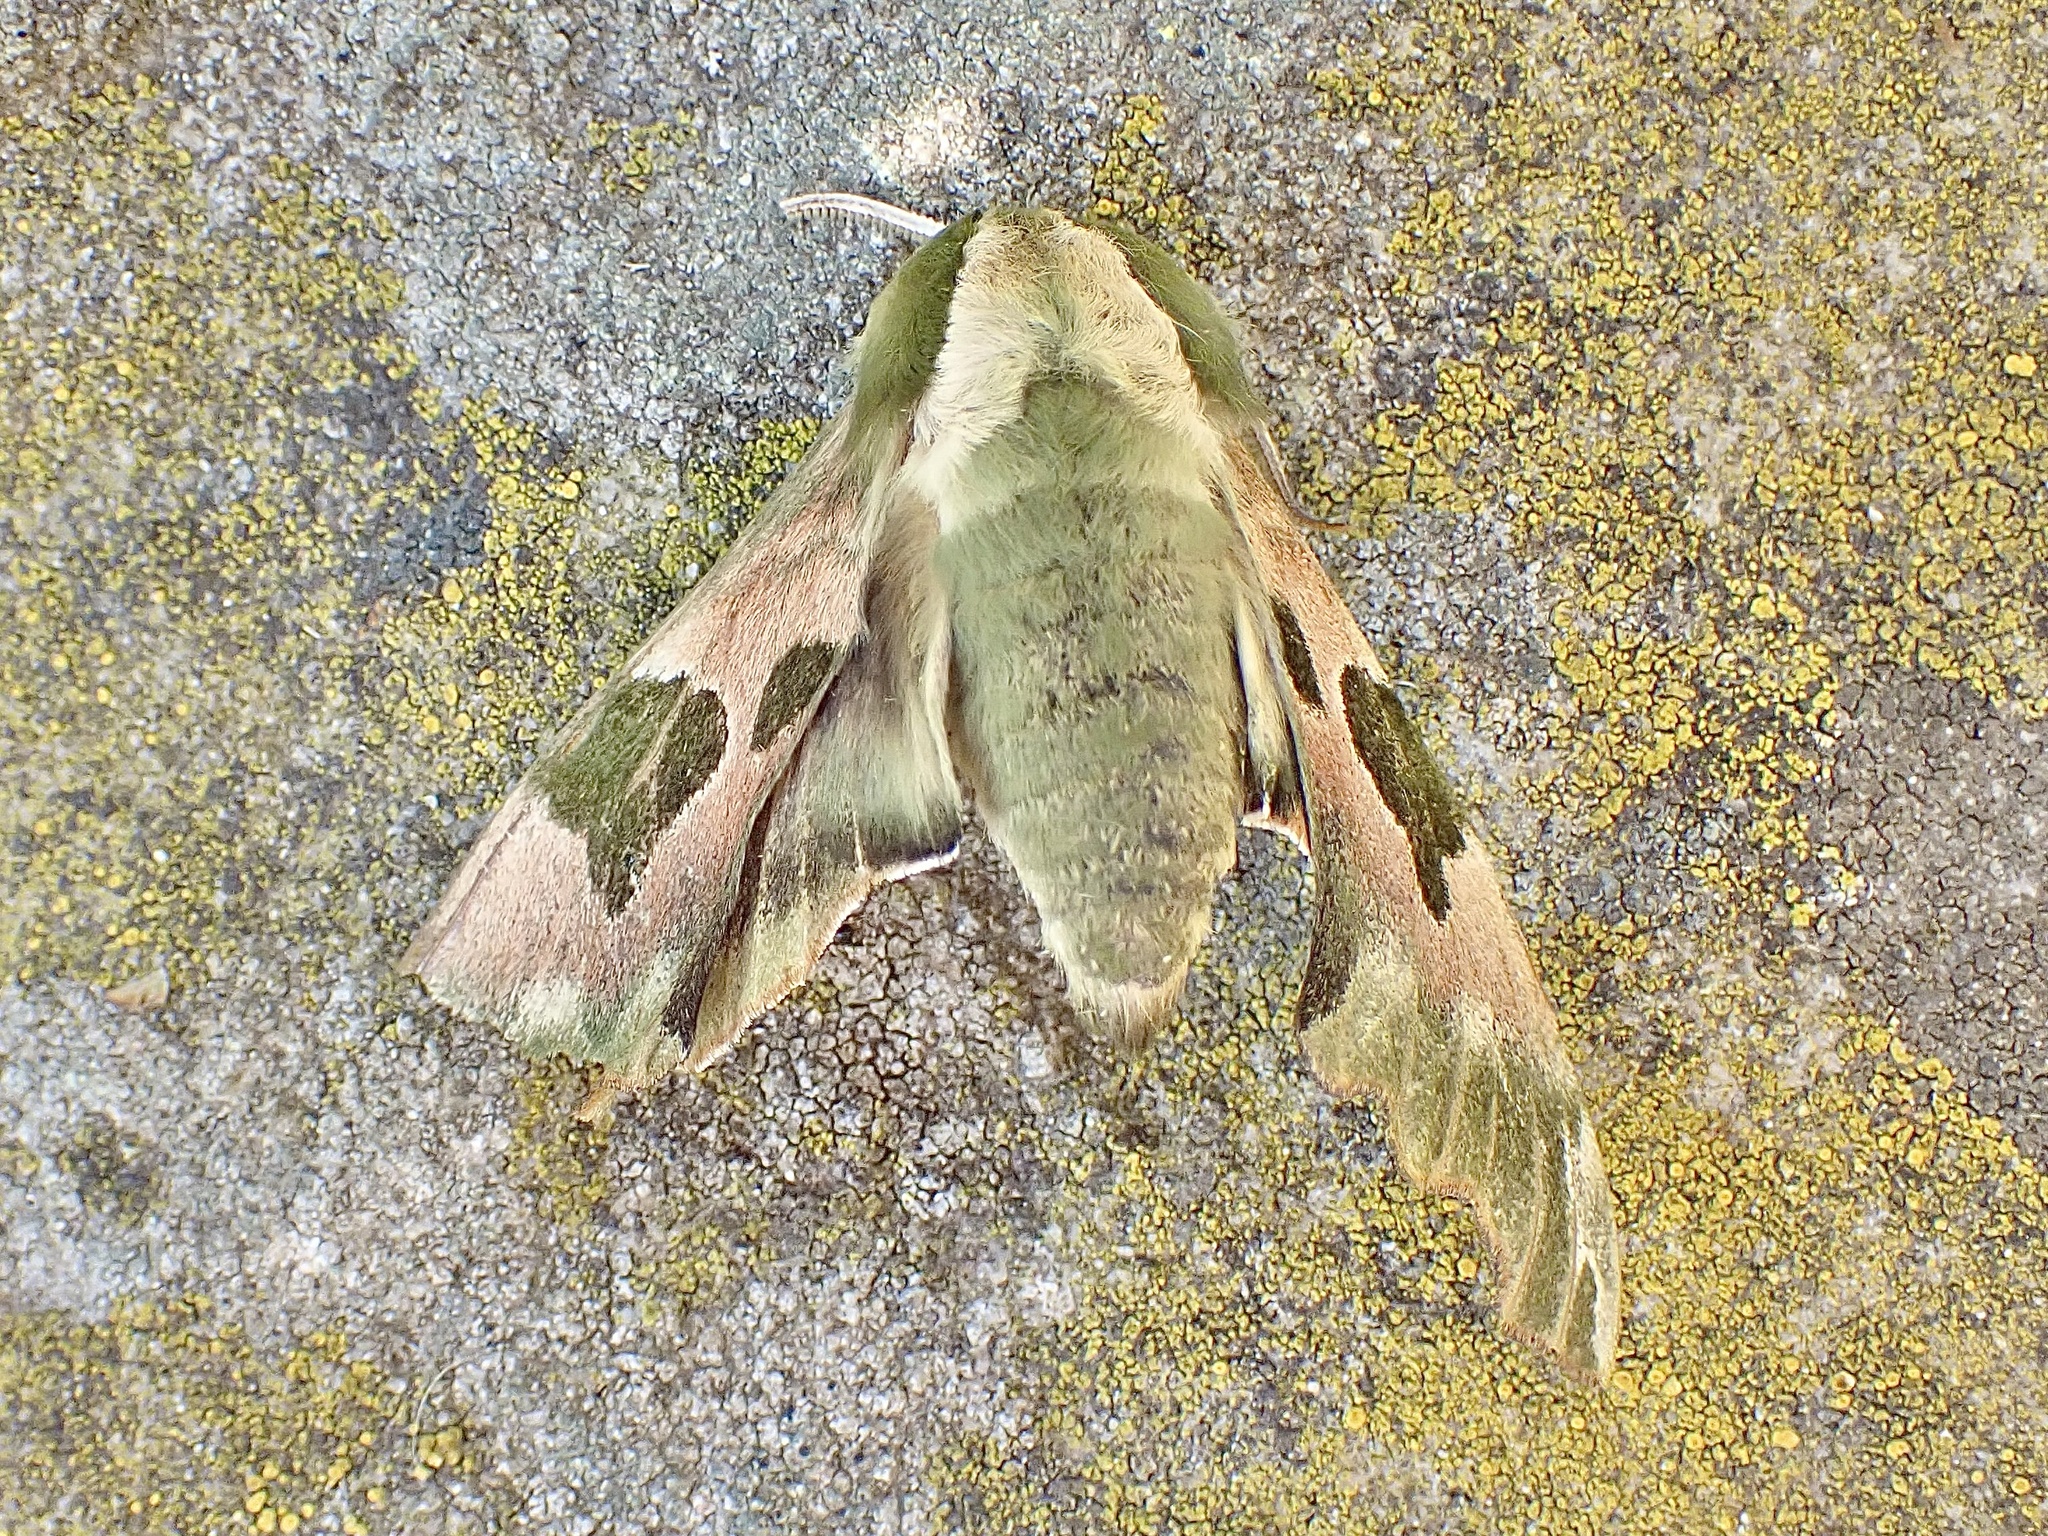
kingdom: Animalia
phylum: Arthropoda
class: Insecta
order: Lepidoptera
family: Sphingidae
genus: Mimas
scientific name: Mimas tiliae
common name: Lime hawk-moth
